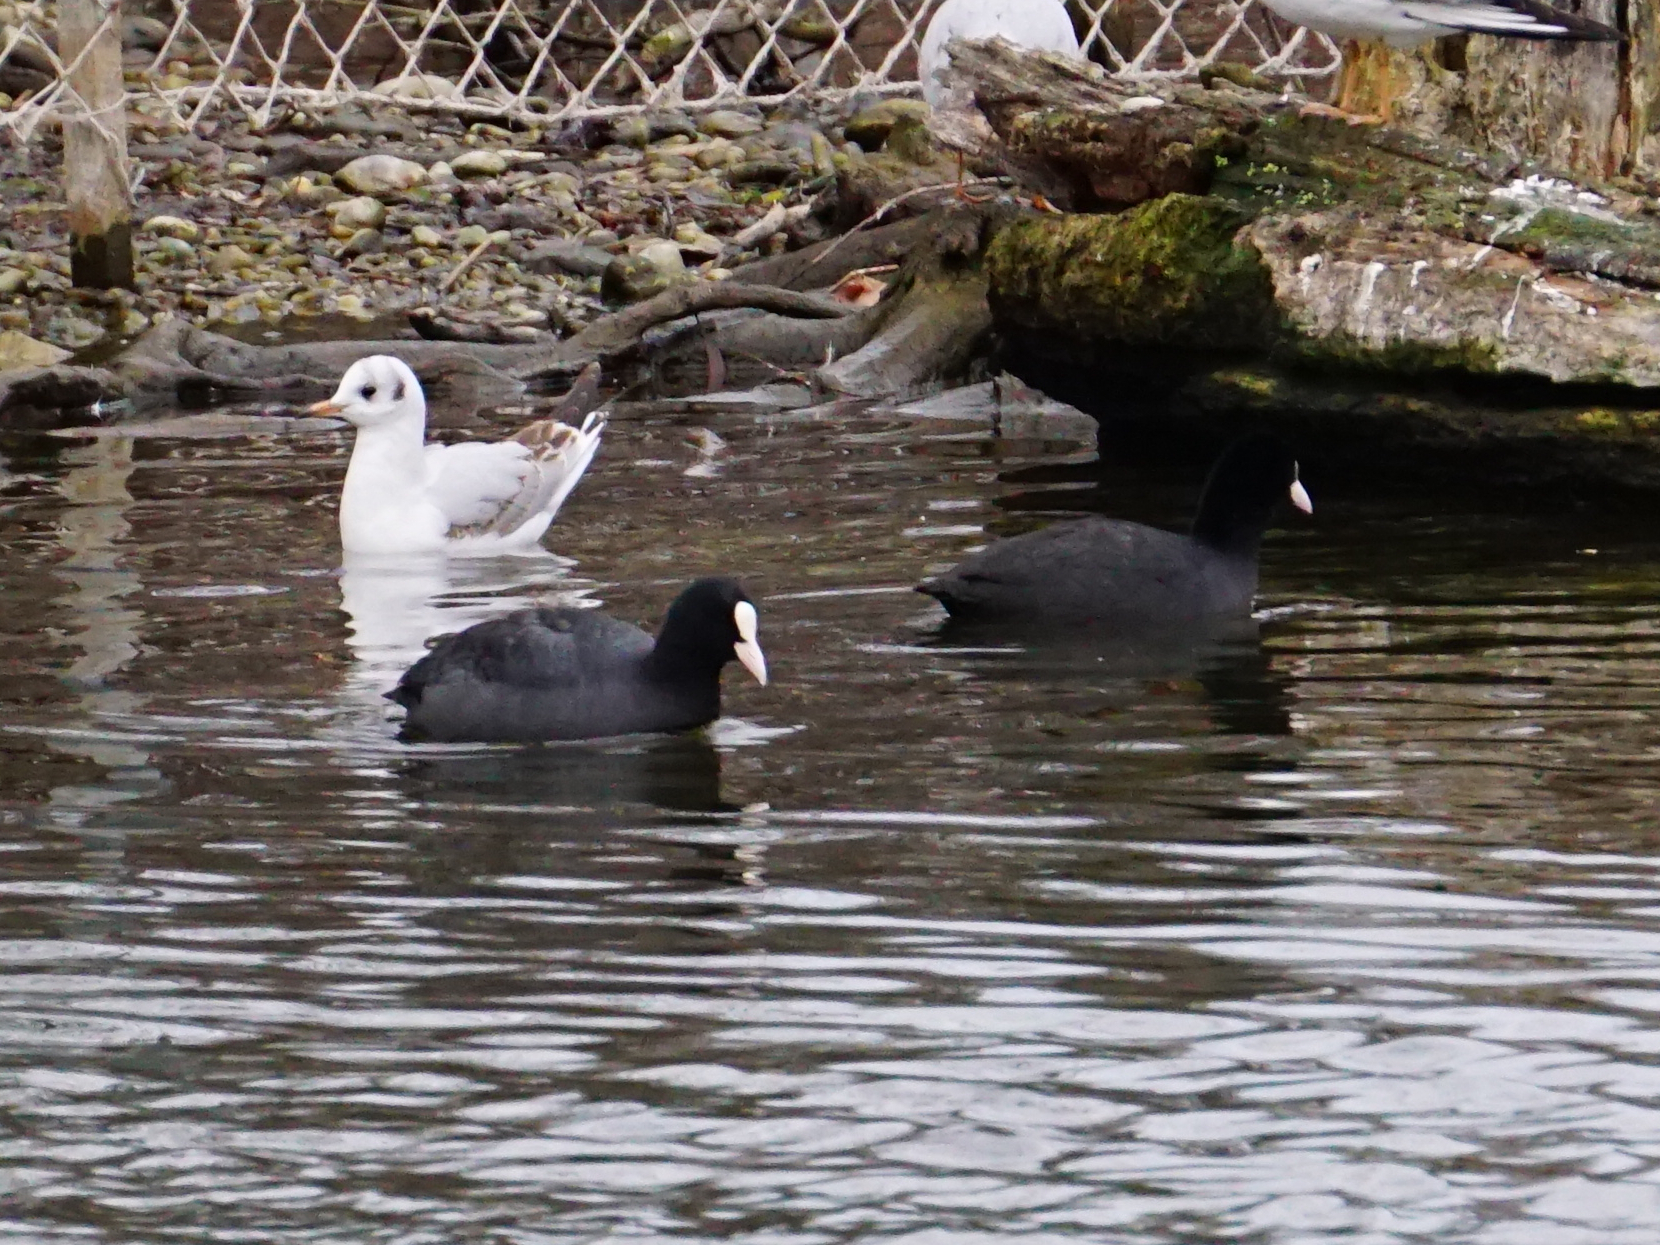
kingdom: Animalia
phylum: Chordata
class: Aves
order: Gruiformes
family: Rallidae
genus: Fulica
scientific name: Fulica atra
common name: Eurasian coot
